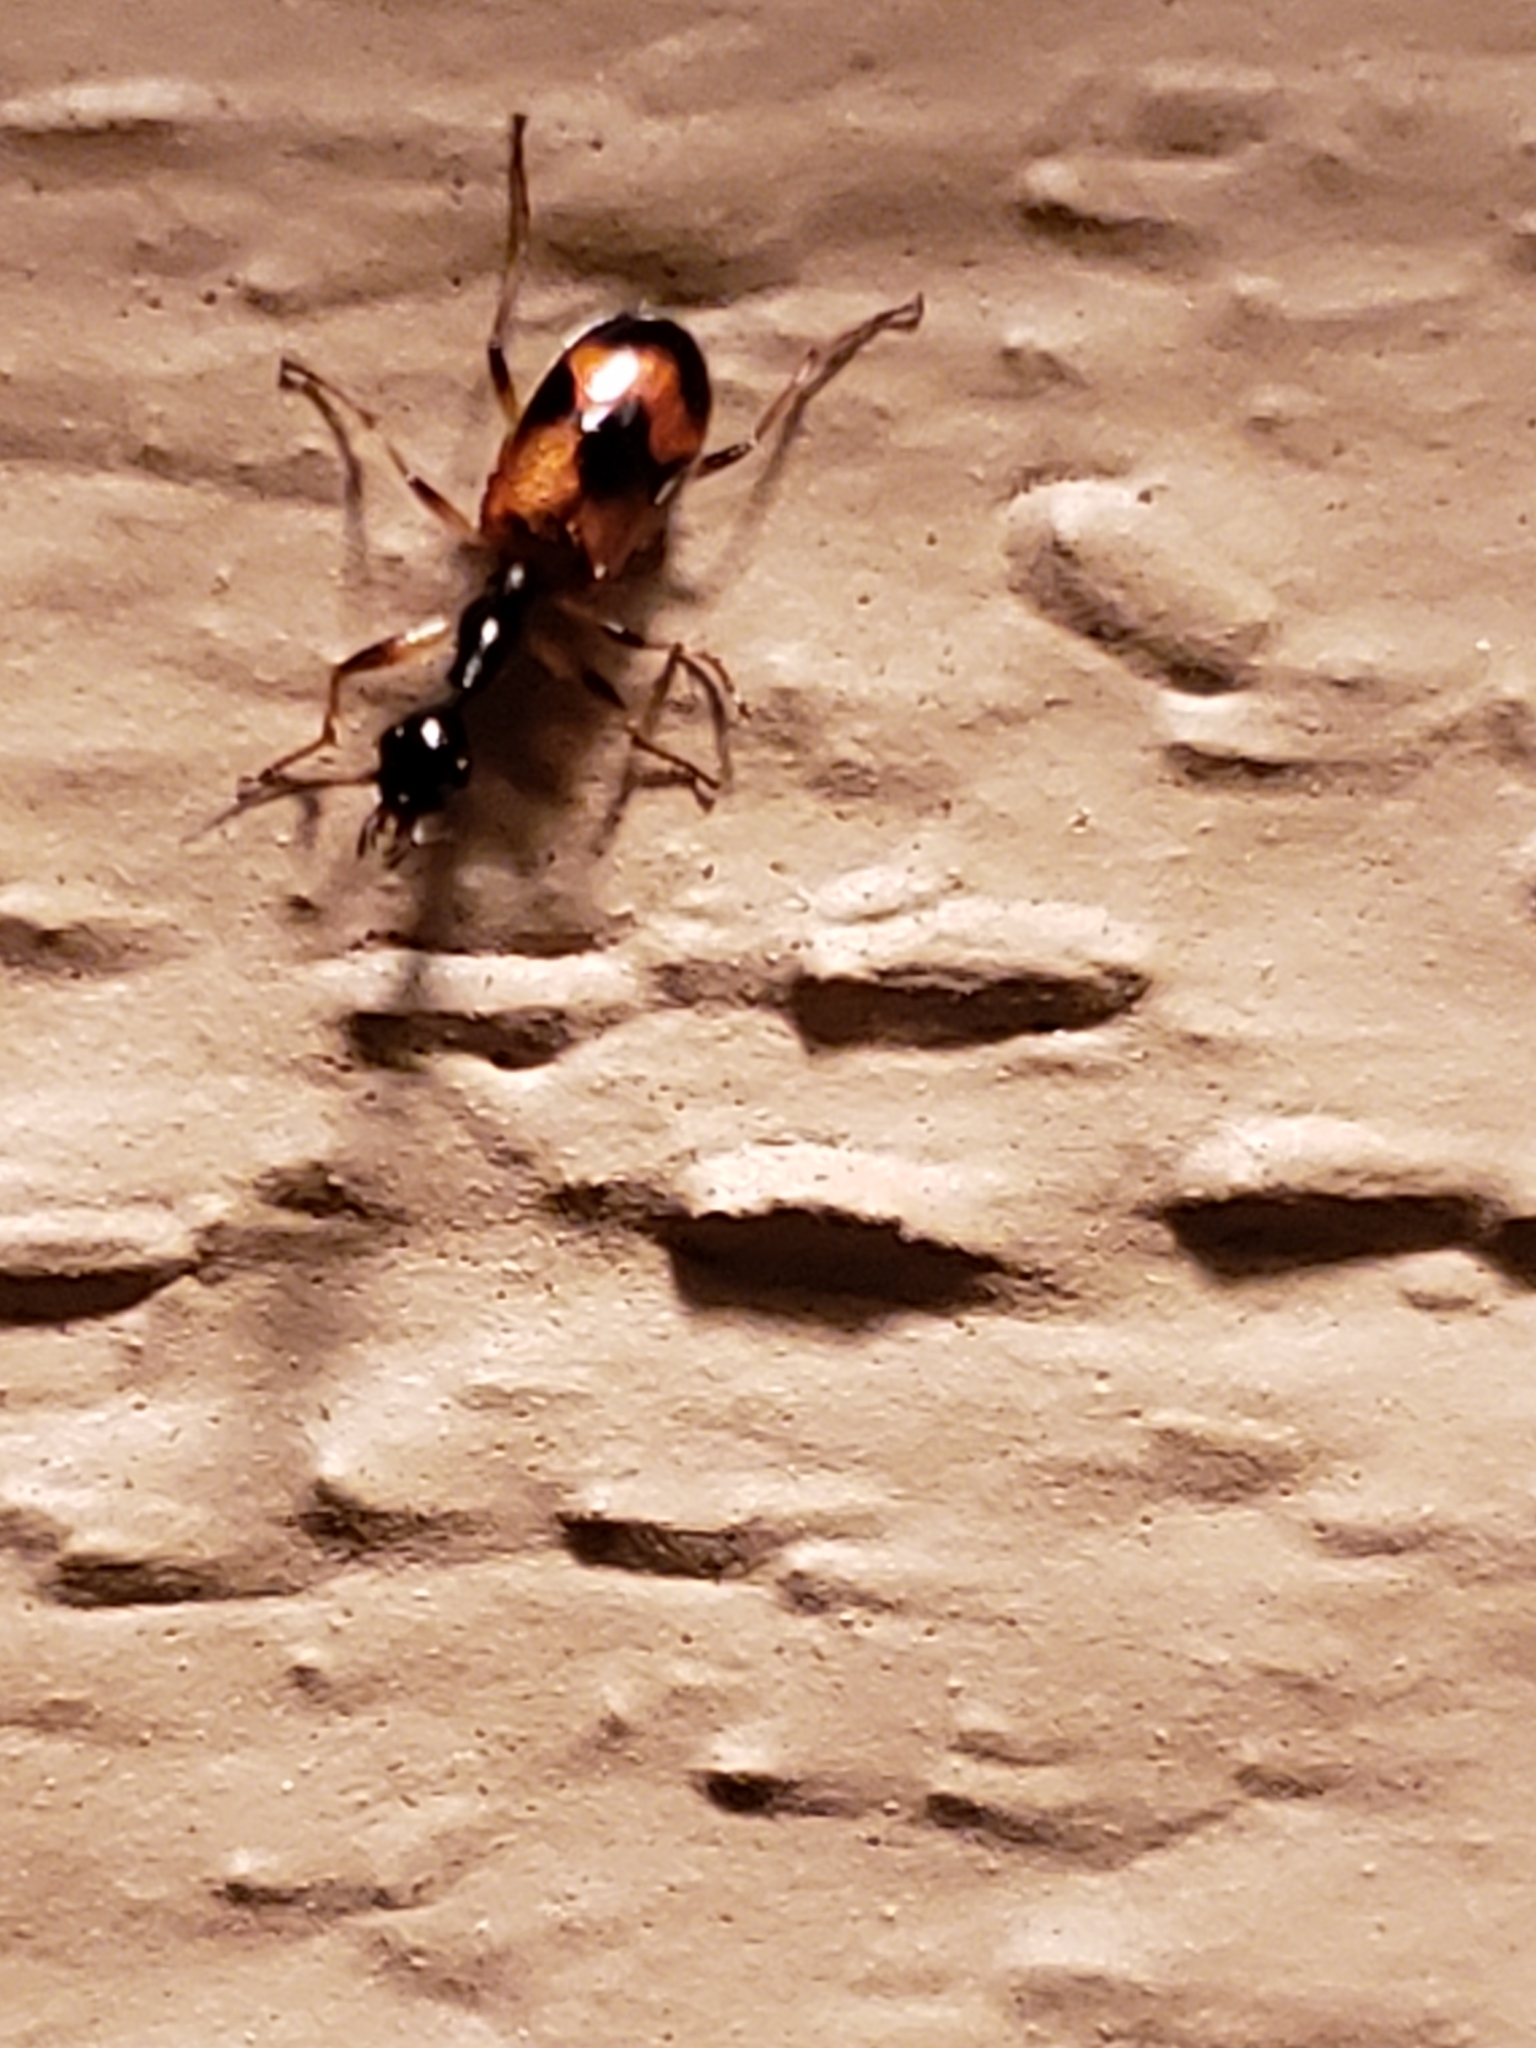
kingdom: Animalia
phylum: Arthropoda
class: Insecta
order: Coleoptera
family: Carabidae
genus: Colliuris
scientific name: Colliuris pensylvanica
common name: Long-necked ground beetle
